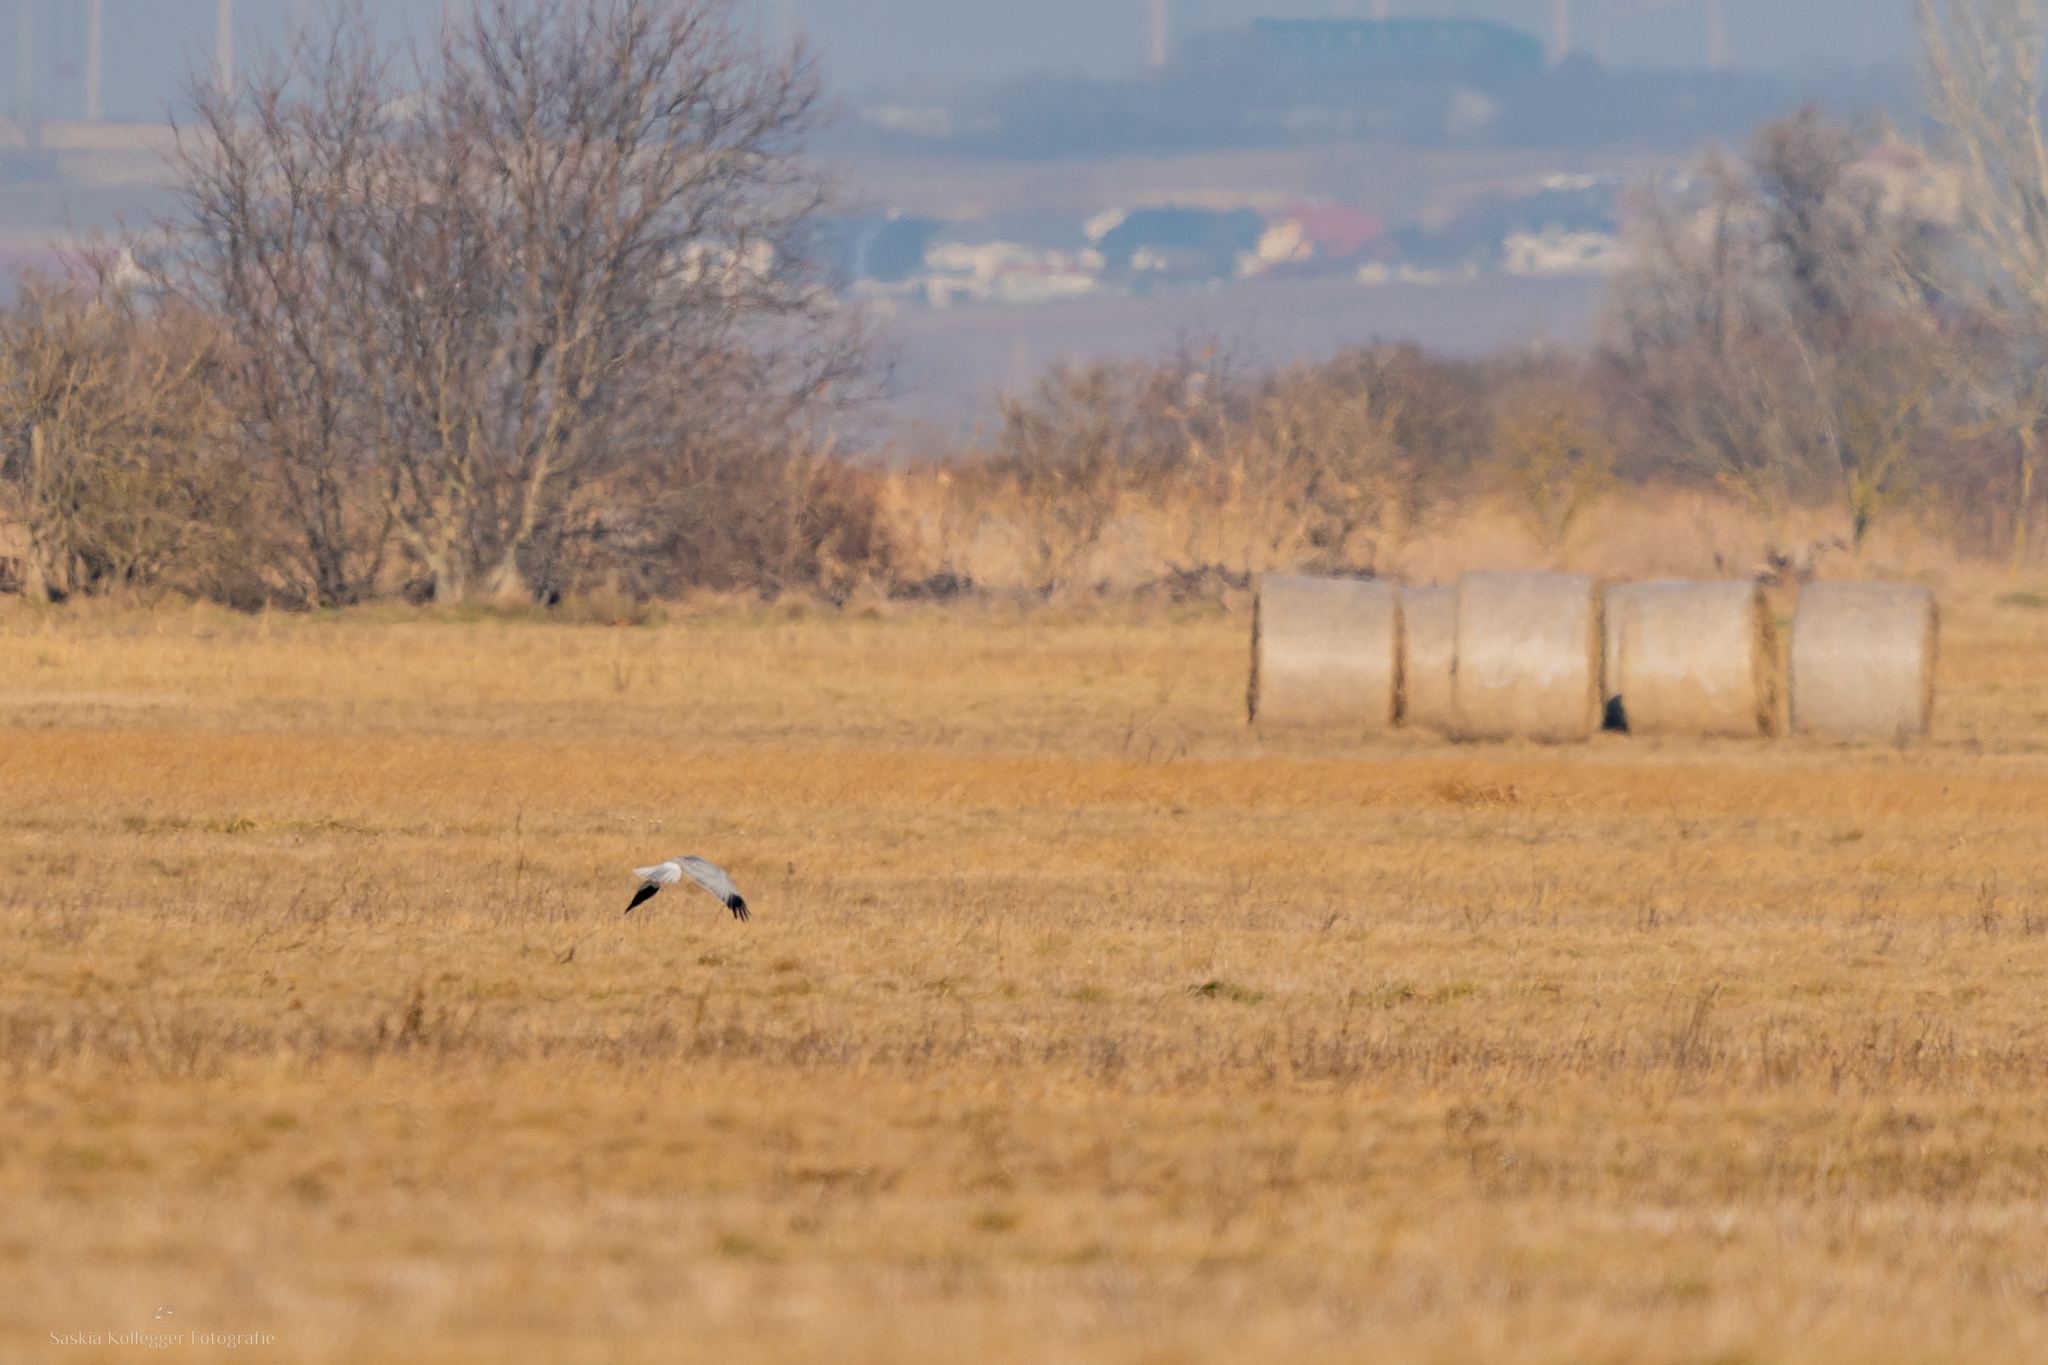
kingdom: Animalia
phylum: Chordata
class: Aves
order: Accipitriformes
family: Accipitridae
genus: Circus
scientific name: Circus cyaneus
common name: Hen harrier
